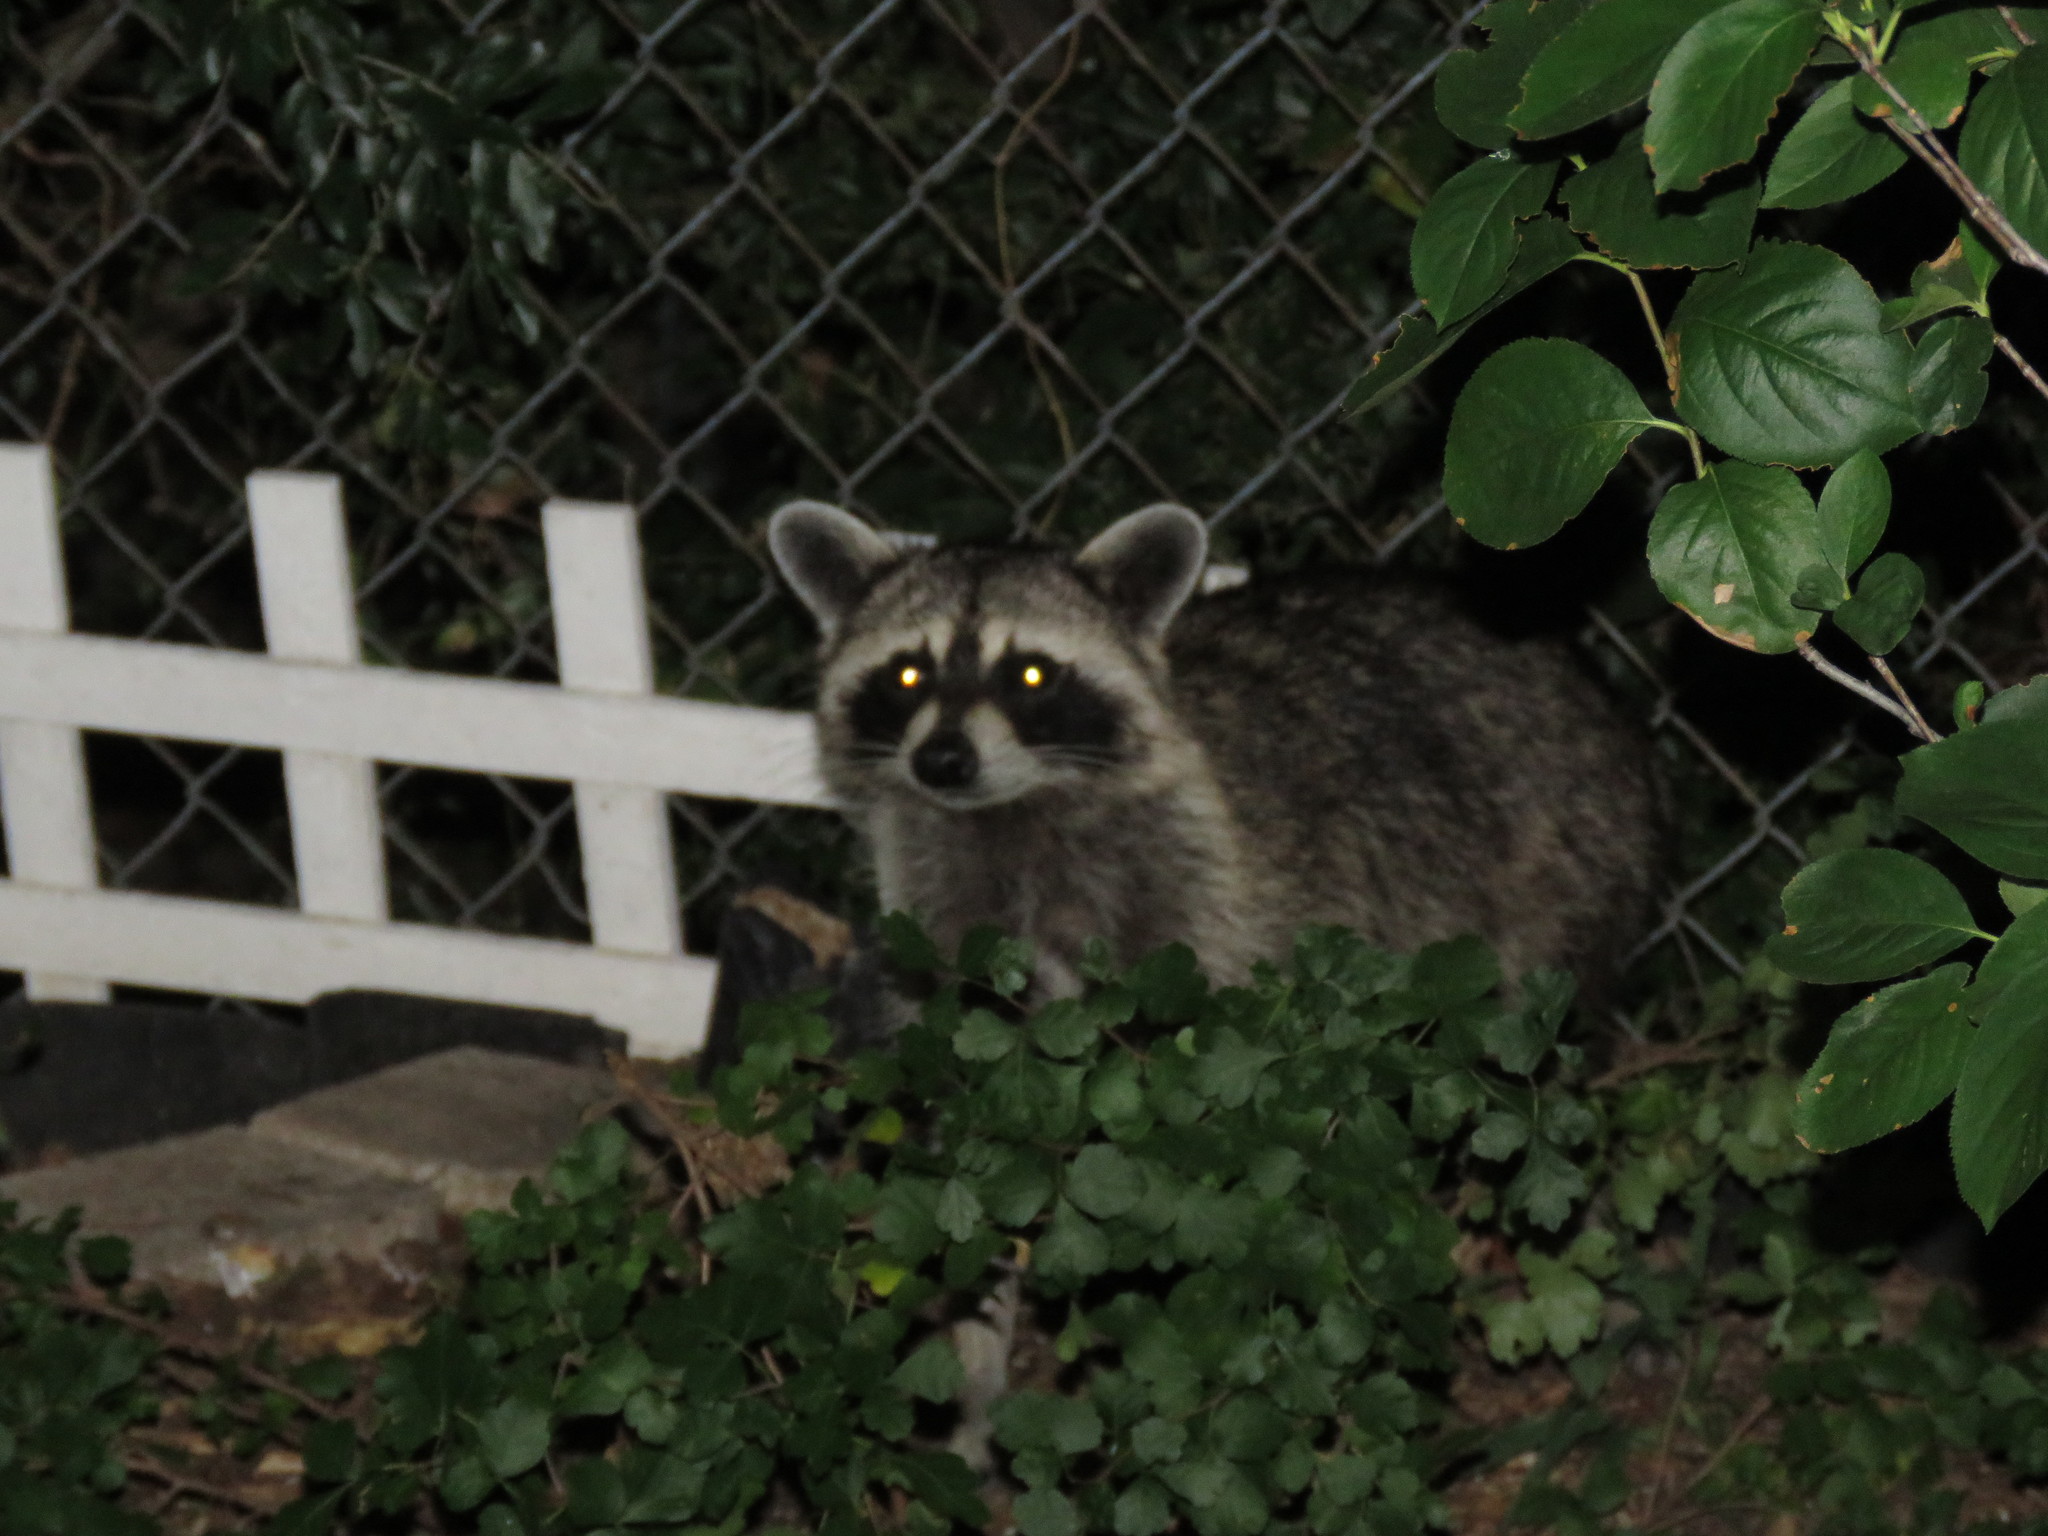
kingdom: Animalia
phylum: Chordata
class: Mammalia
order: Carnivora
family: Procyonidae
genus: Procyon
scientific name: Procyon lotor
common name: Raccoon
